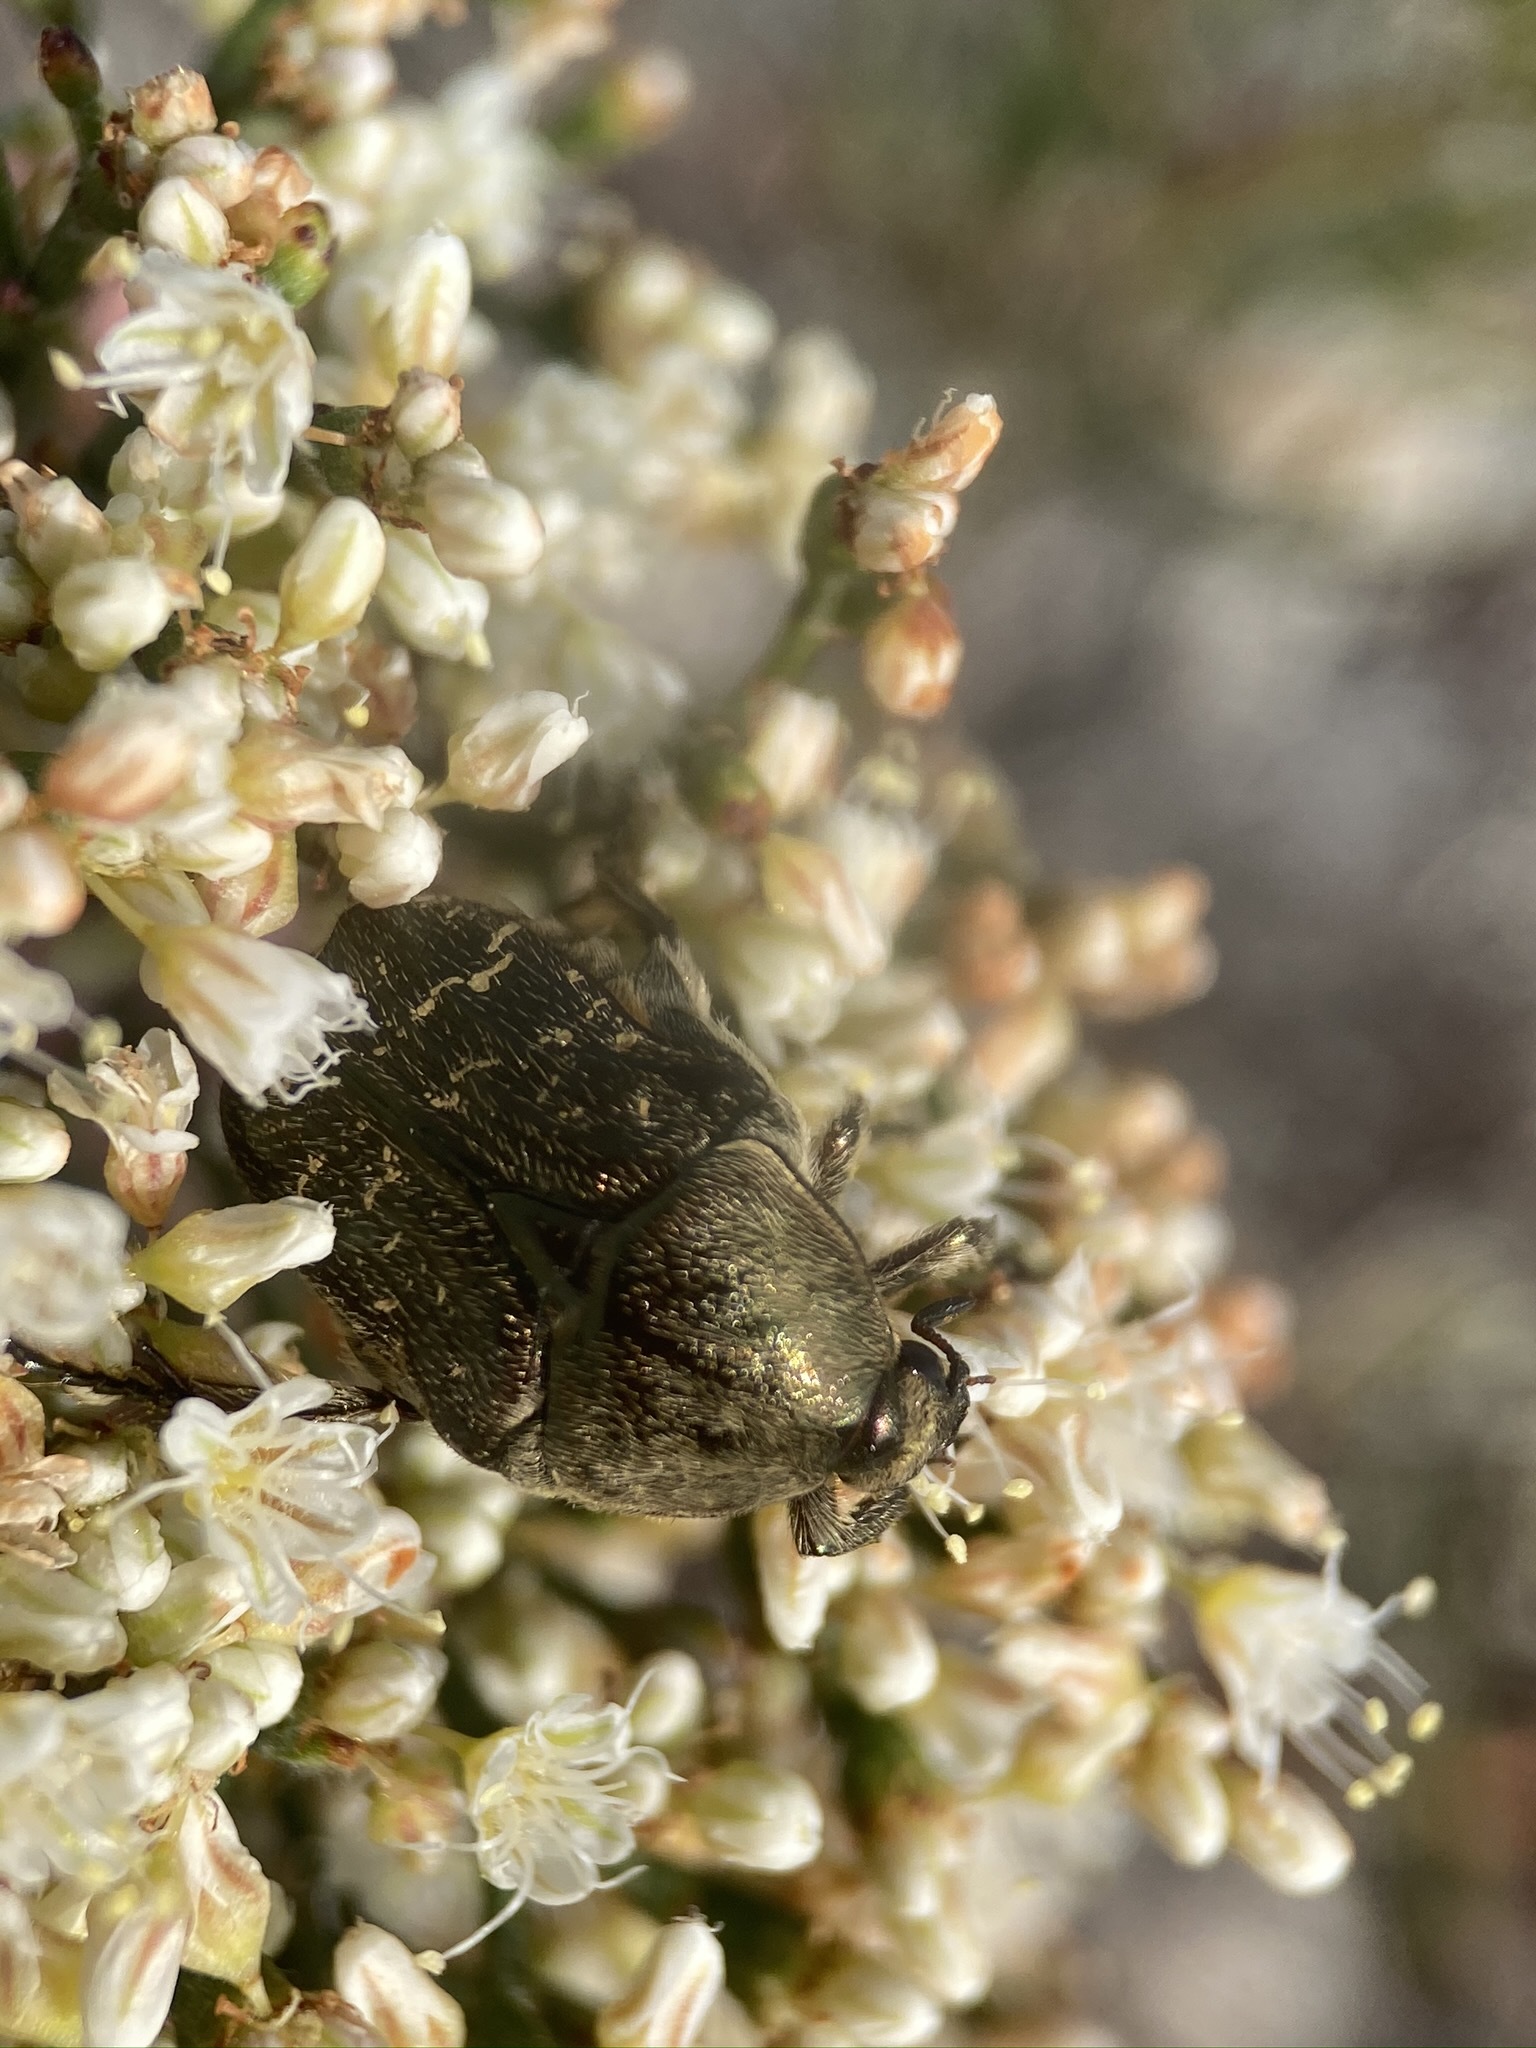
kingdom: Animalia
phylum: Arthropoda
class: Insecta
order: Coleoptera
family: Scarabaeidae
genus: Euphoria
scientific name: Euphoria sepulcralis
